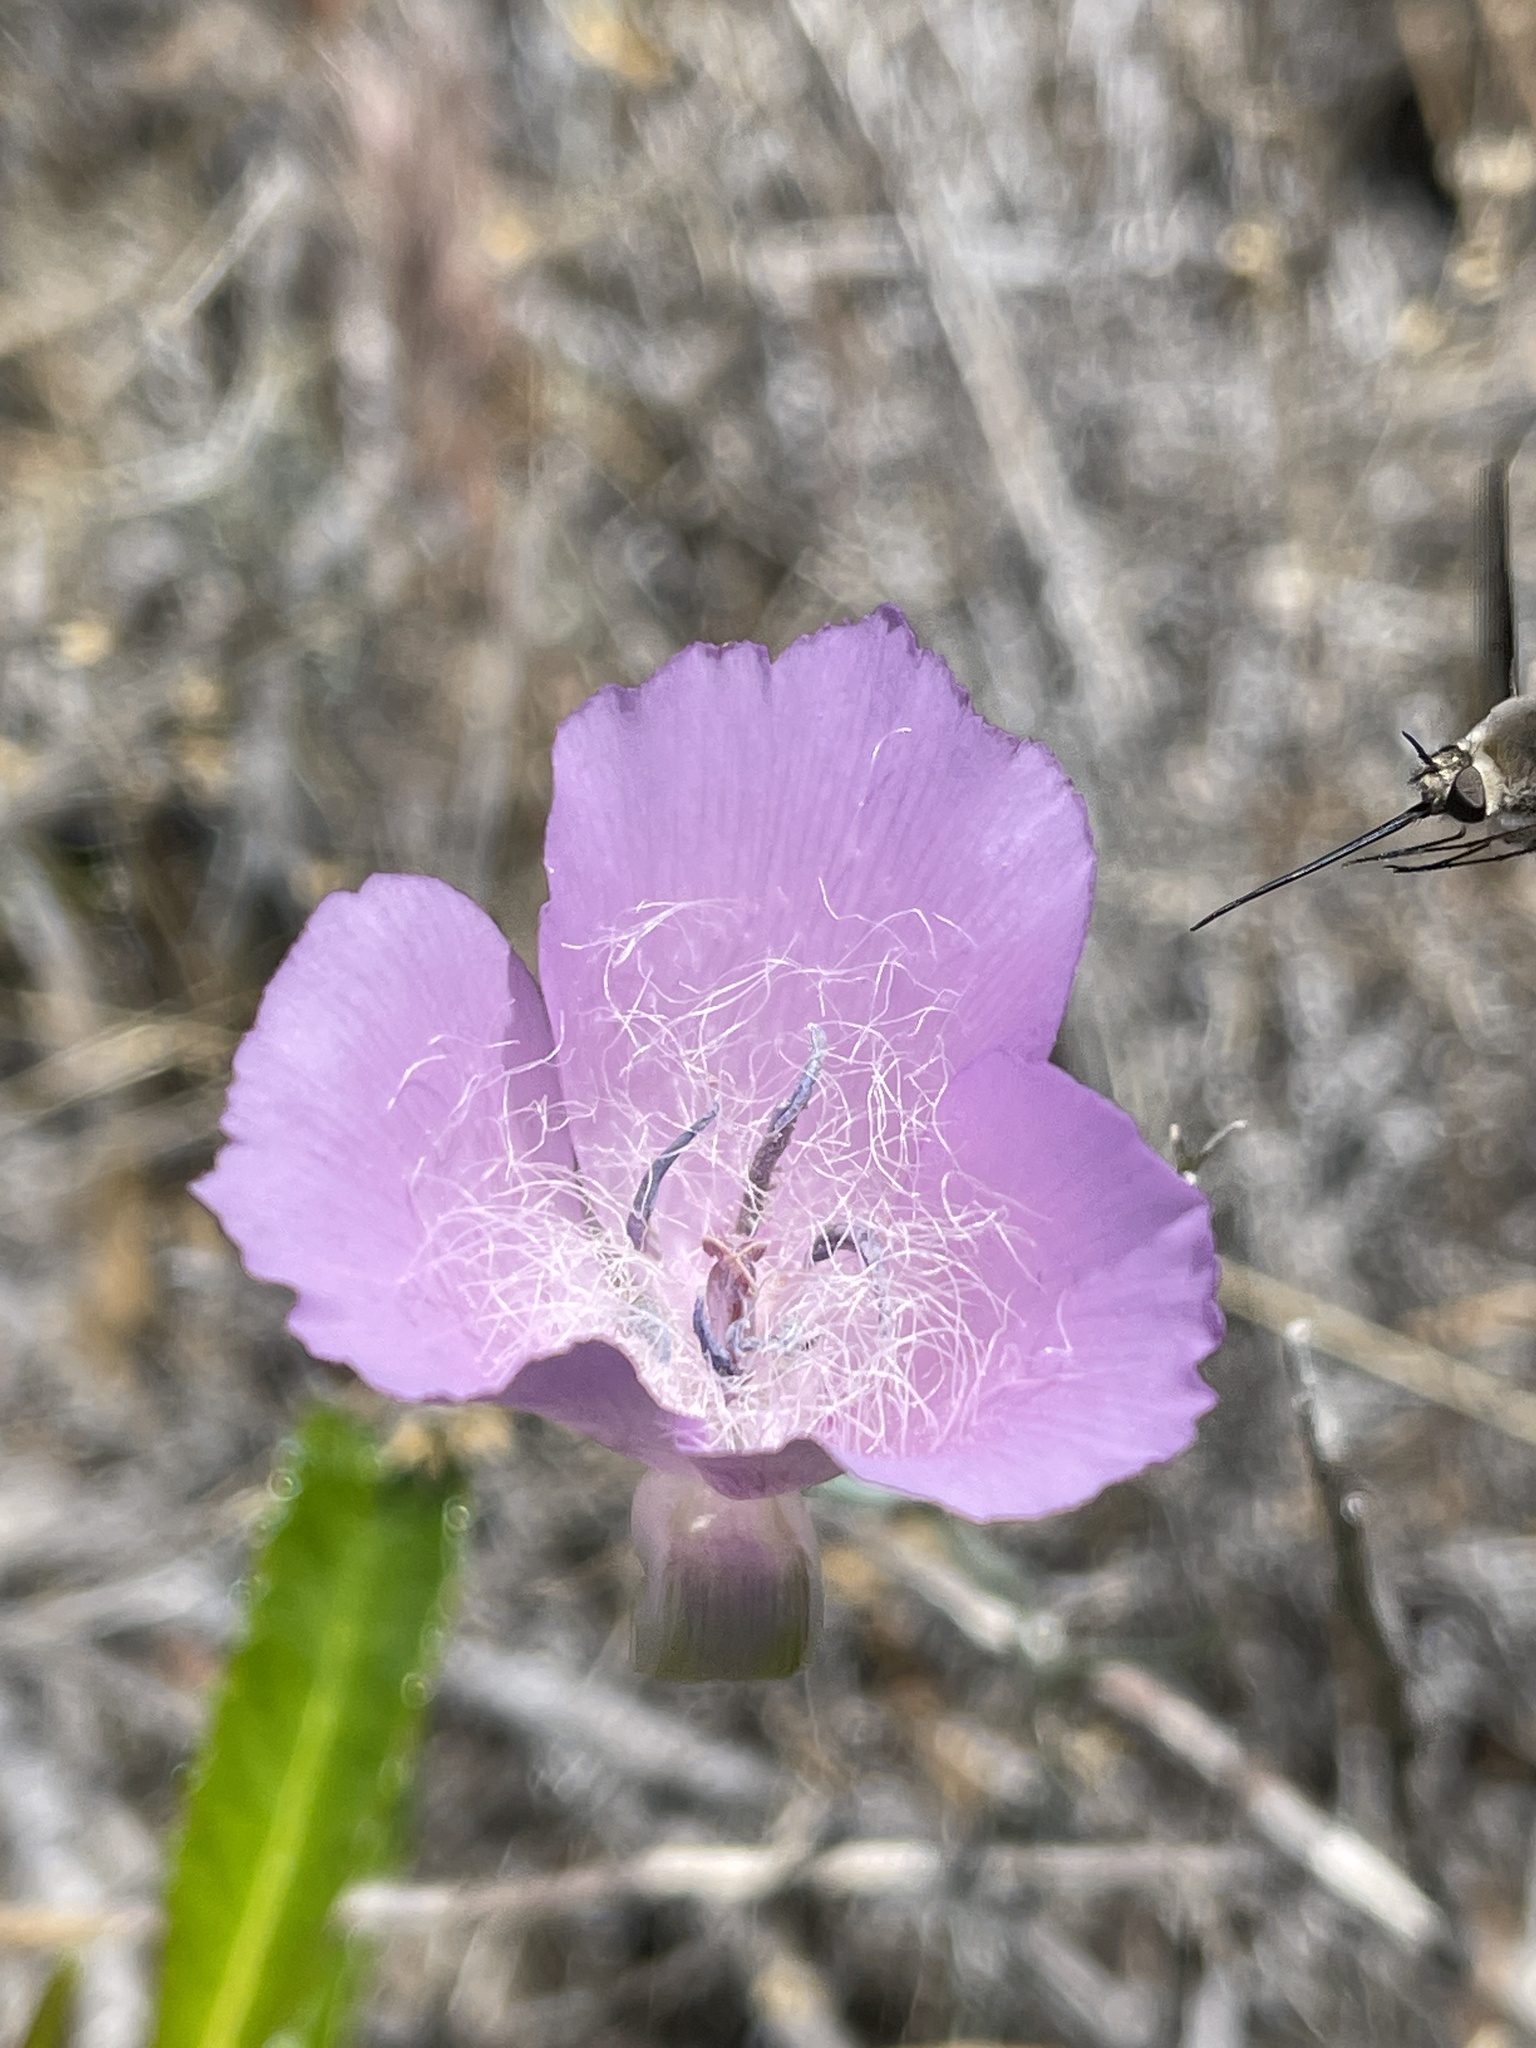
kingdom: Plantae
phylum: Tracheophyta
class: Liliopsida
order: Liliales
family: Liliaceae
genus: Calochortus
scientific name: Calochortus splendens
